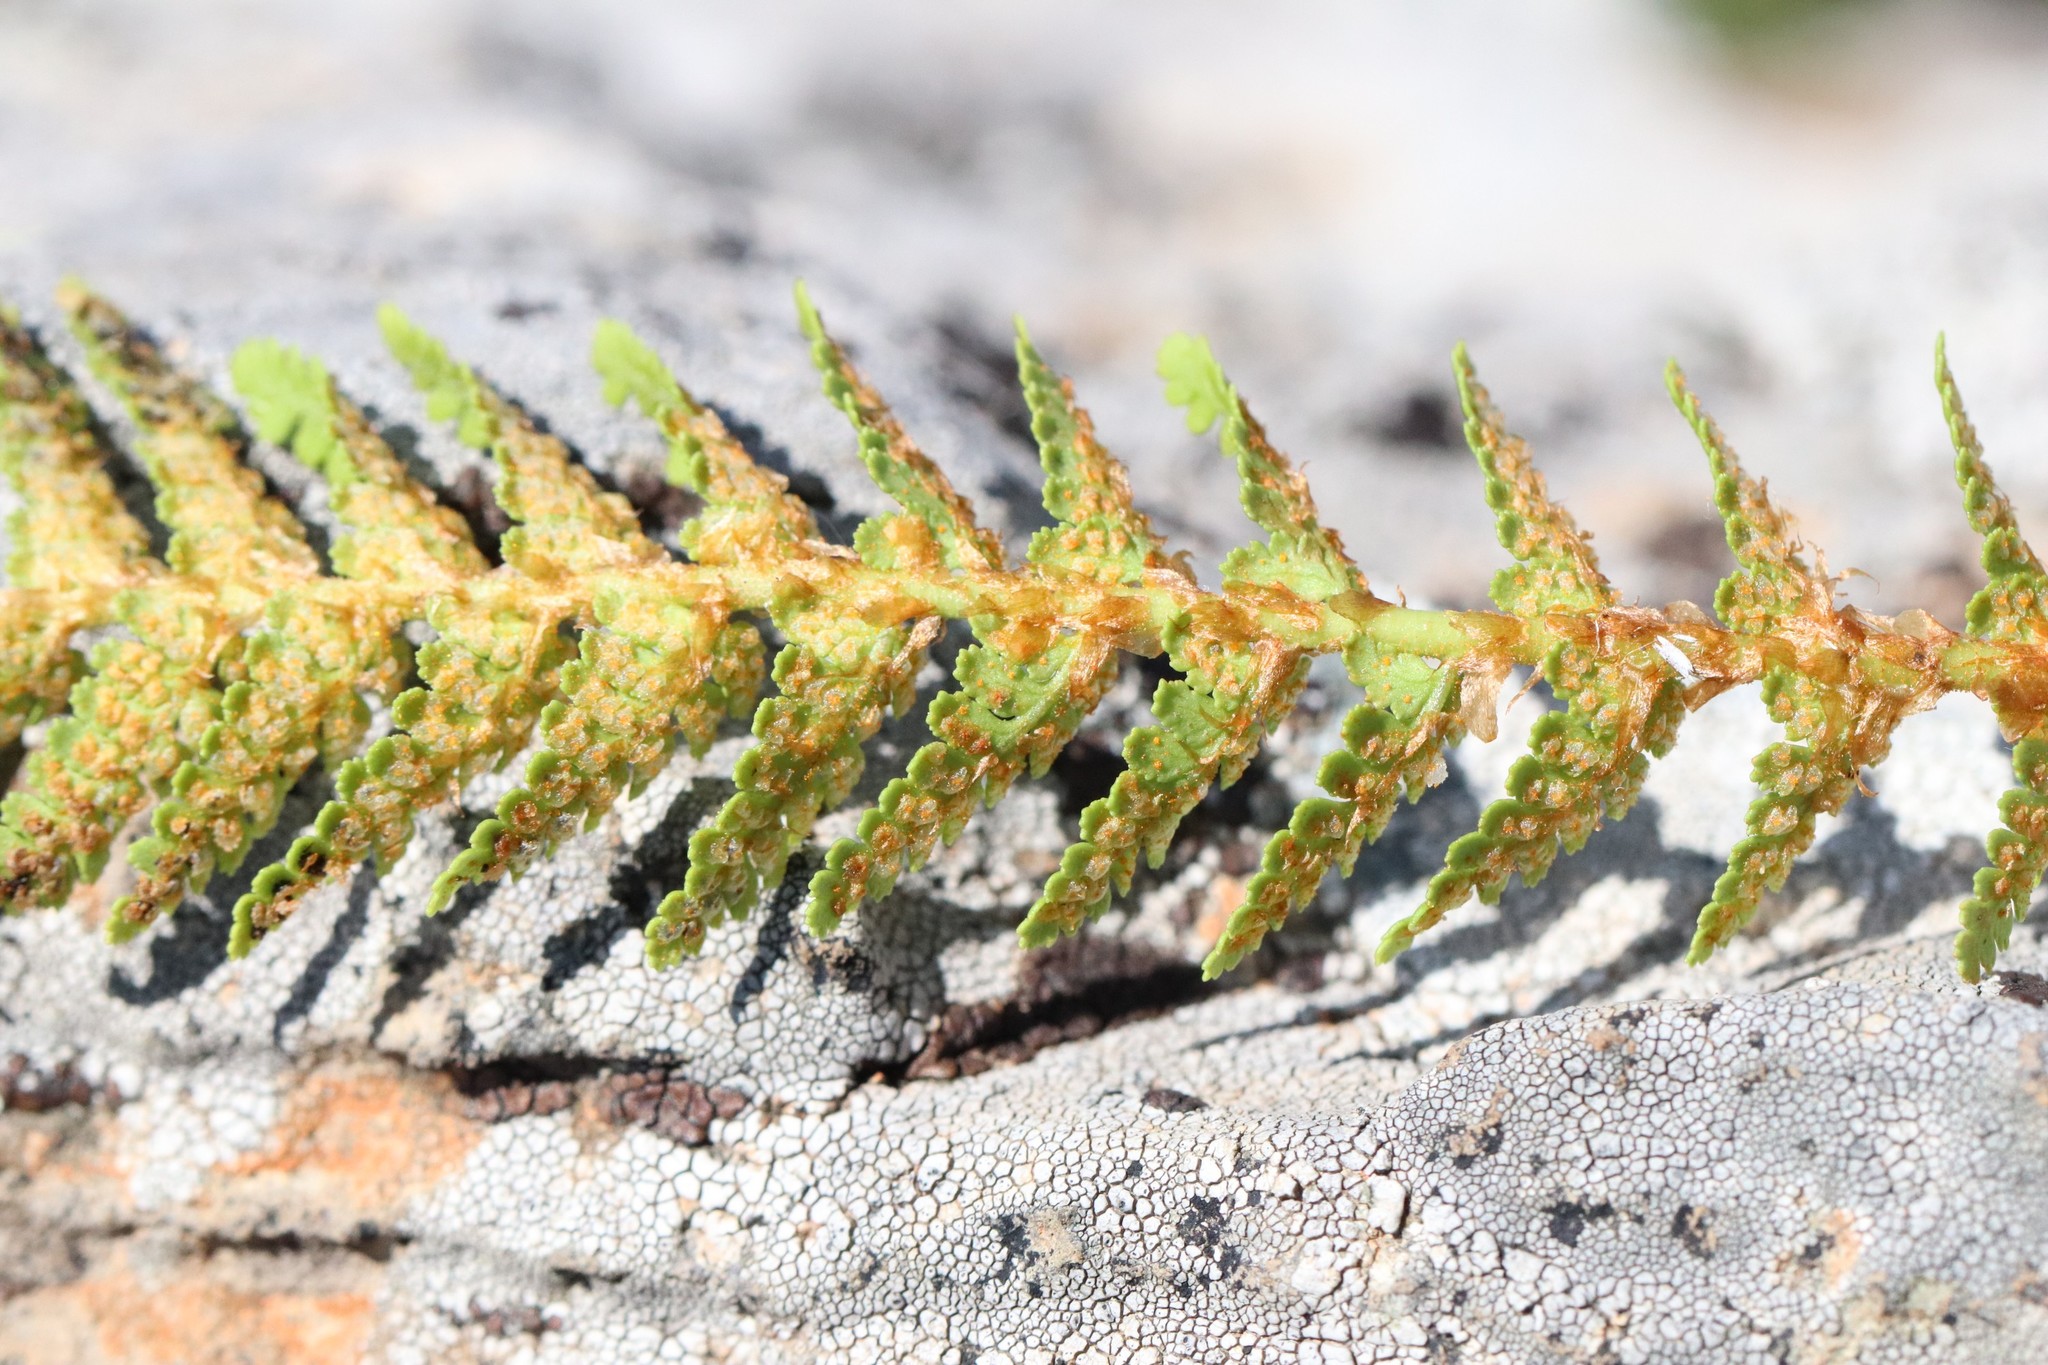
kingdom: Plantae
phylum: Tracheophyta
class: Polypodiopsida
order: Polypodiales
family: Dryopteridaceae
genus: Dryopteris
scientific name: Dryopteris fragrans
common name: Fragrant wood fern
